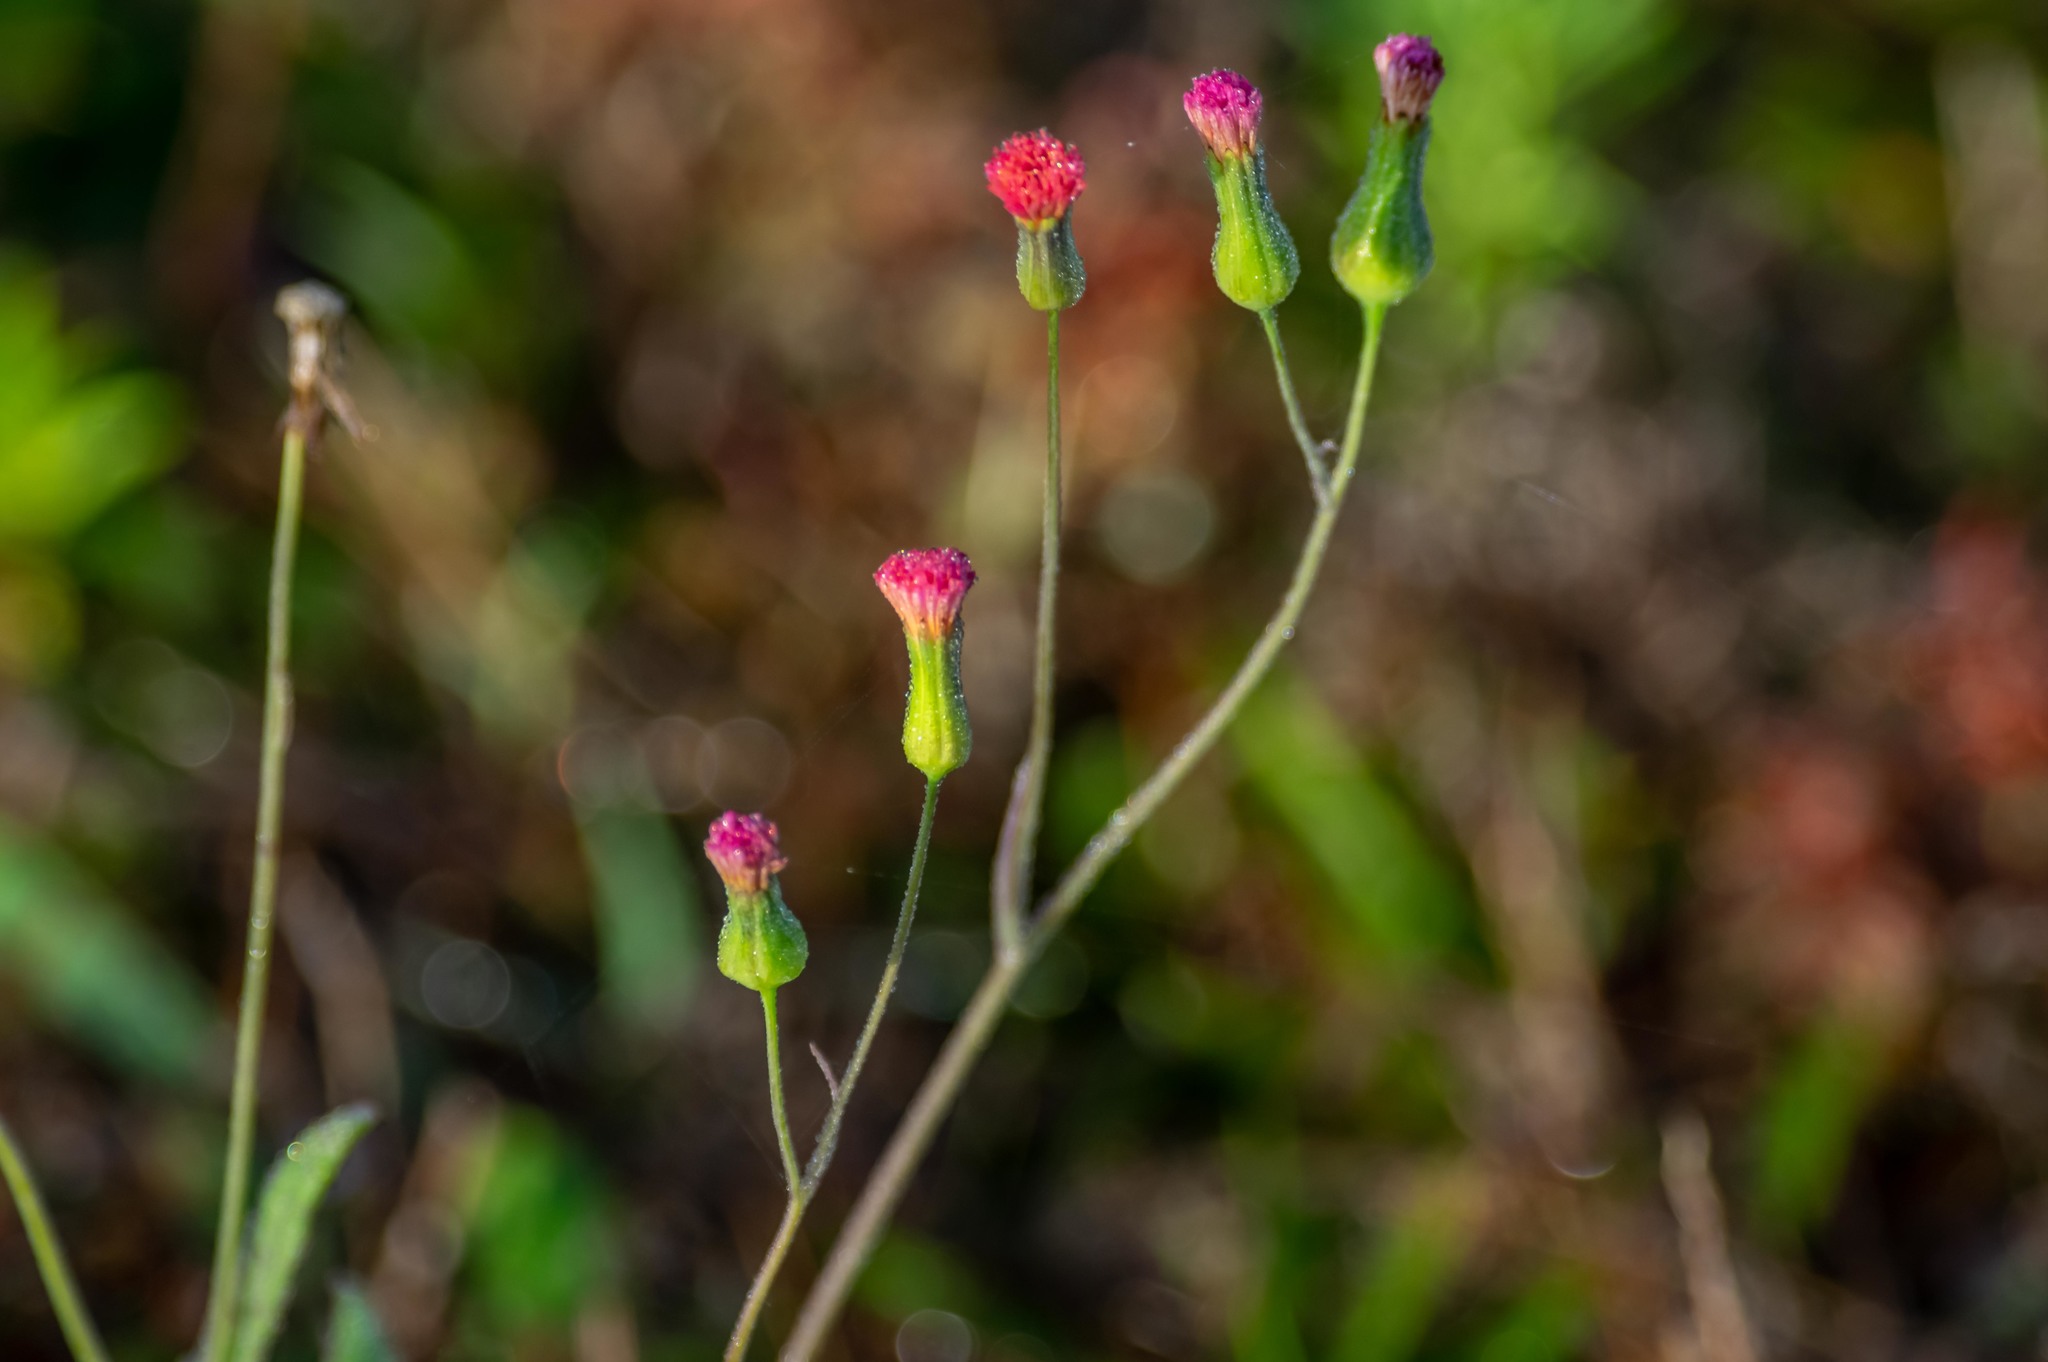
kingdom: Plantae
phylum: Tracheophyta
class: Magnoliopsida
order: Asterales
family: Asteraceae
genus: Emilia
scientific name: Emilia fosbergii
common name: Florida tasselflower
